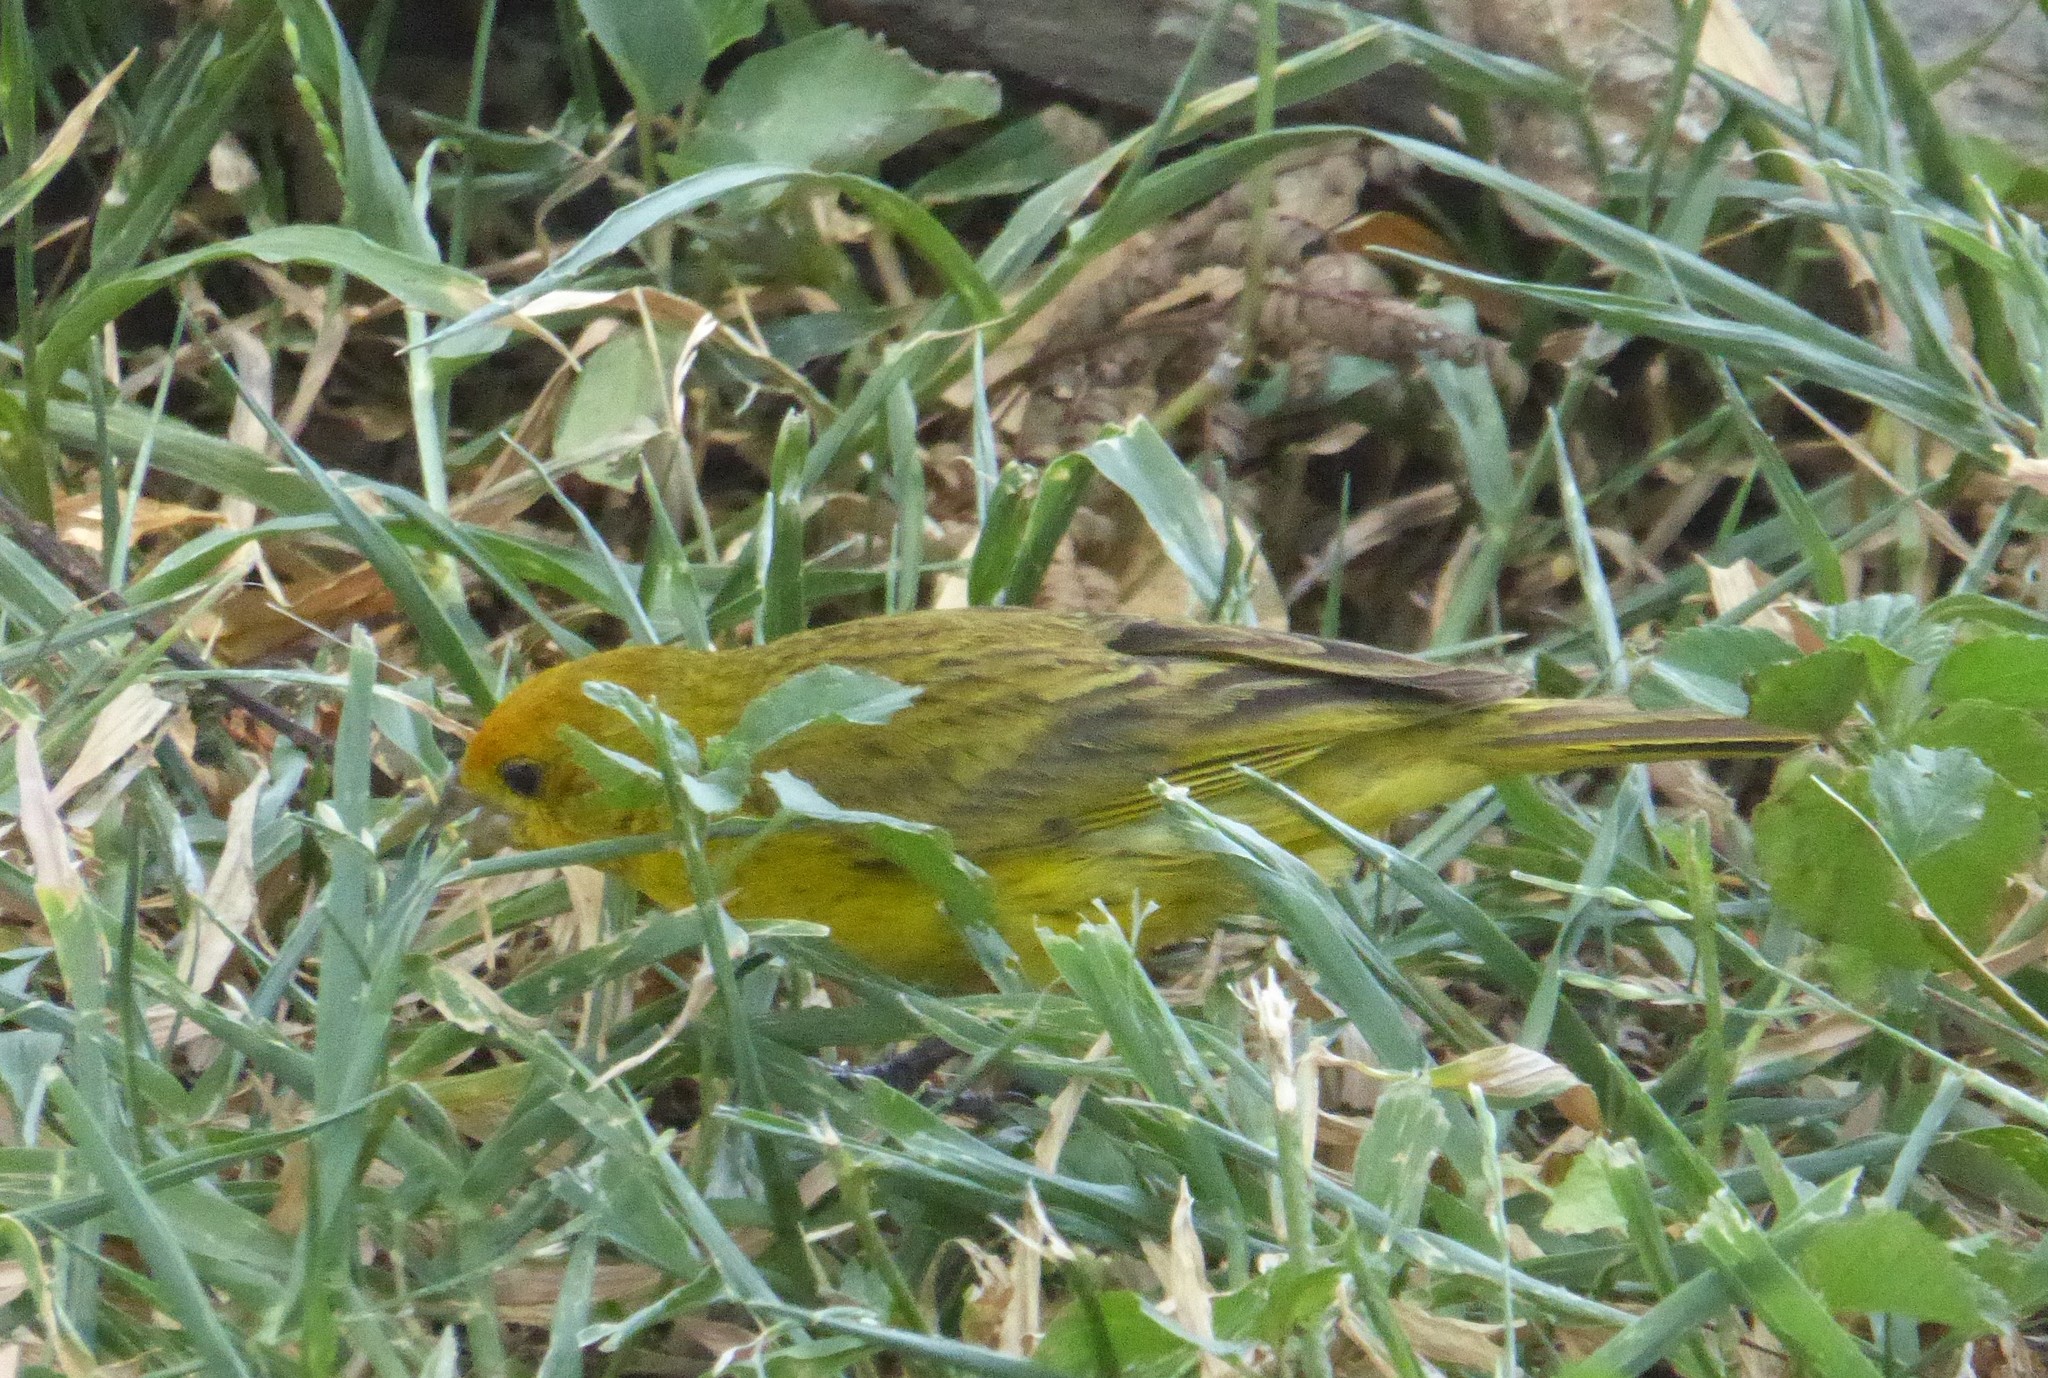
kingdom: Animalia
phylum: Chordata
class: Aves
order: Passeriformes
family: Thraupidae
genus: Sicalis
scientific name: Sicalis flaveola
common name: Saffron finch
